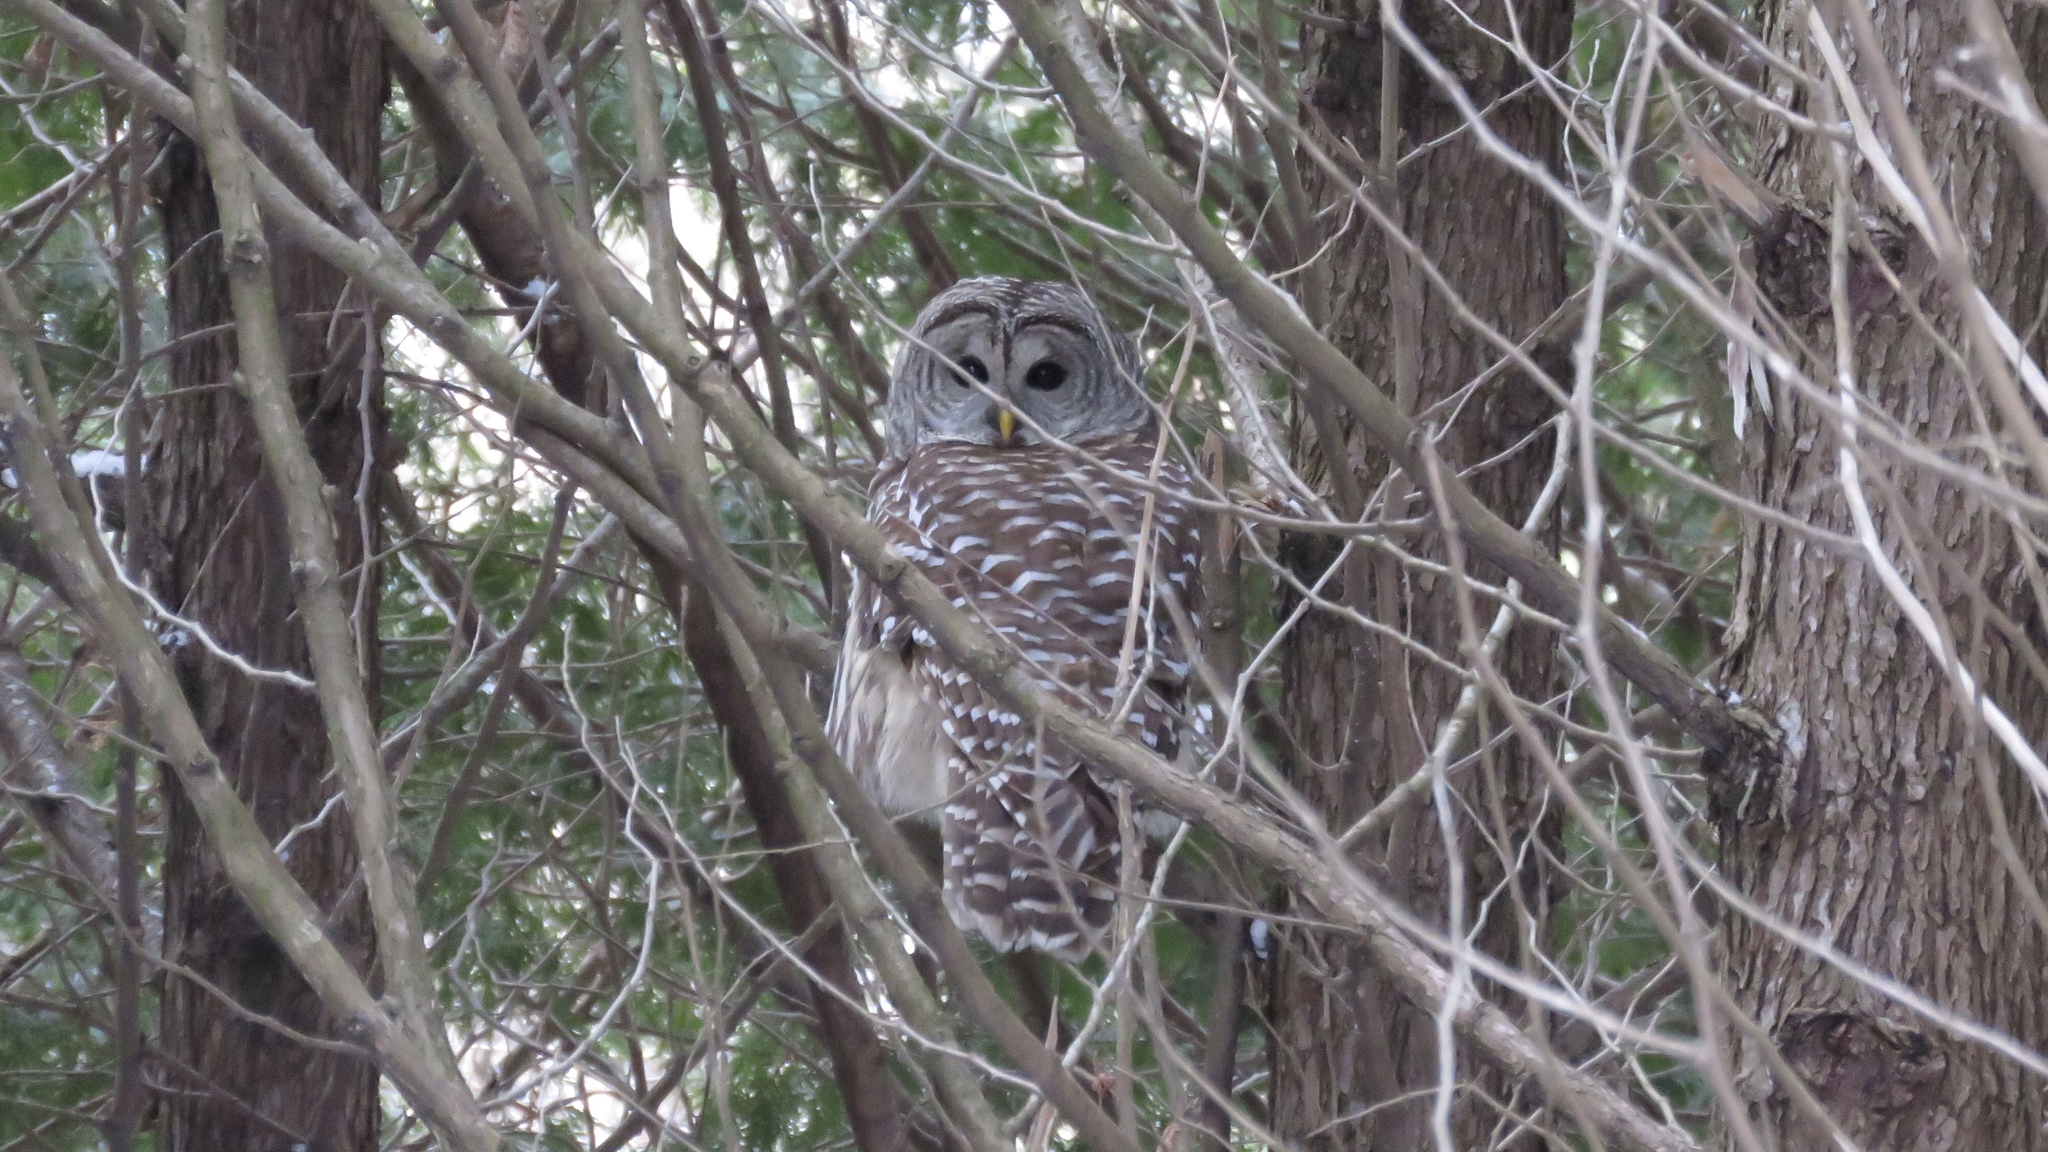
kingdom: Animalia
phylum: Chordata
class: Aves
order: Strigiformes
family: Strigidae
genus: Strix
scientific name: Strix varia
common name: Barred owl
